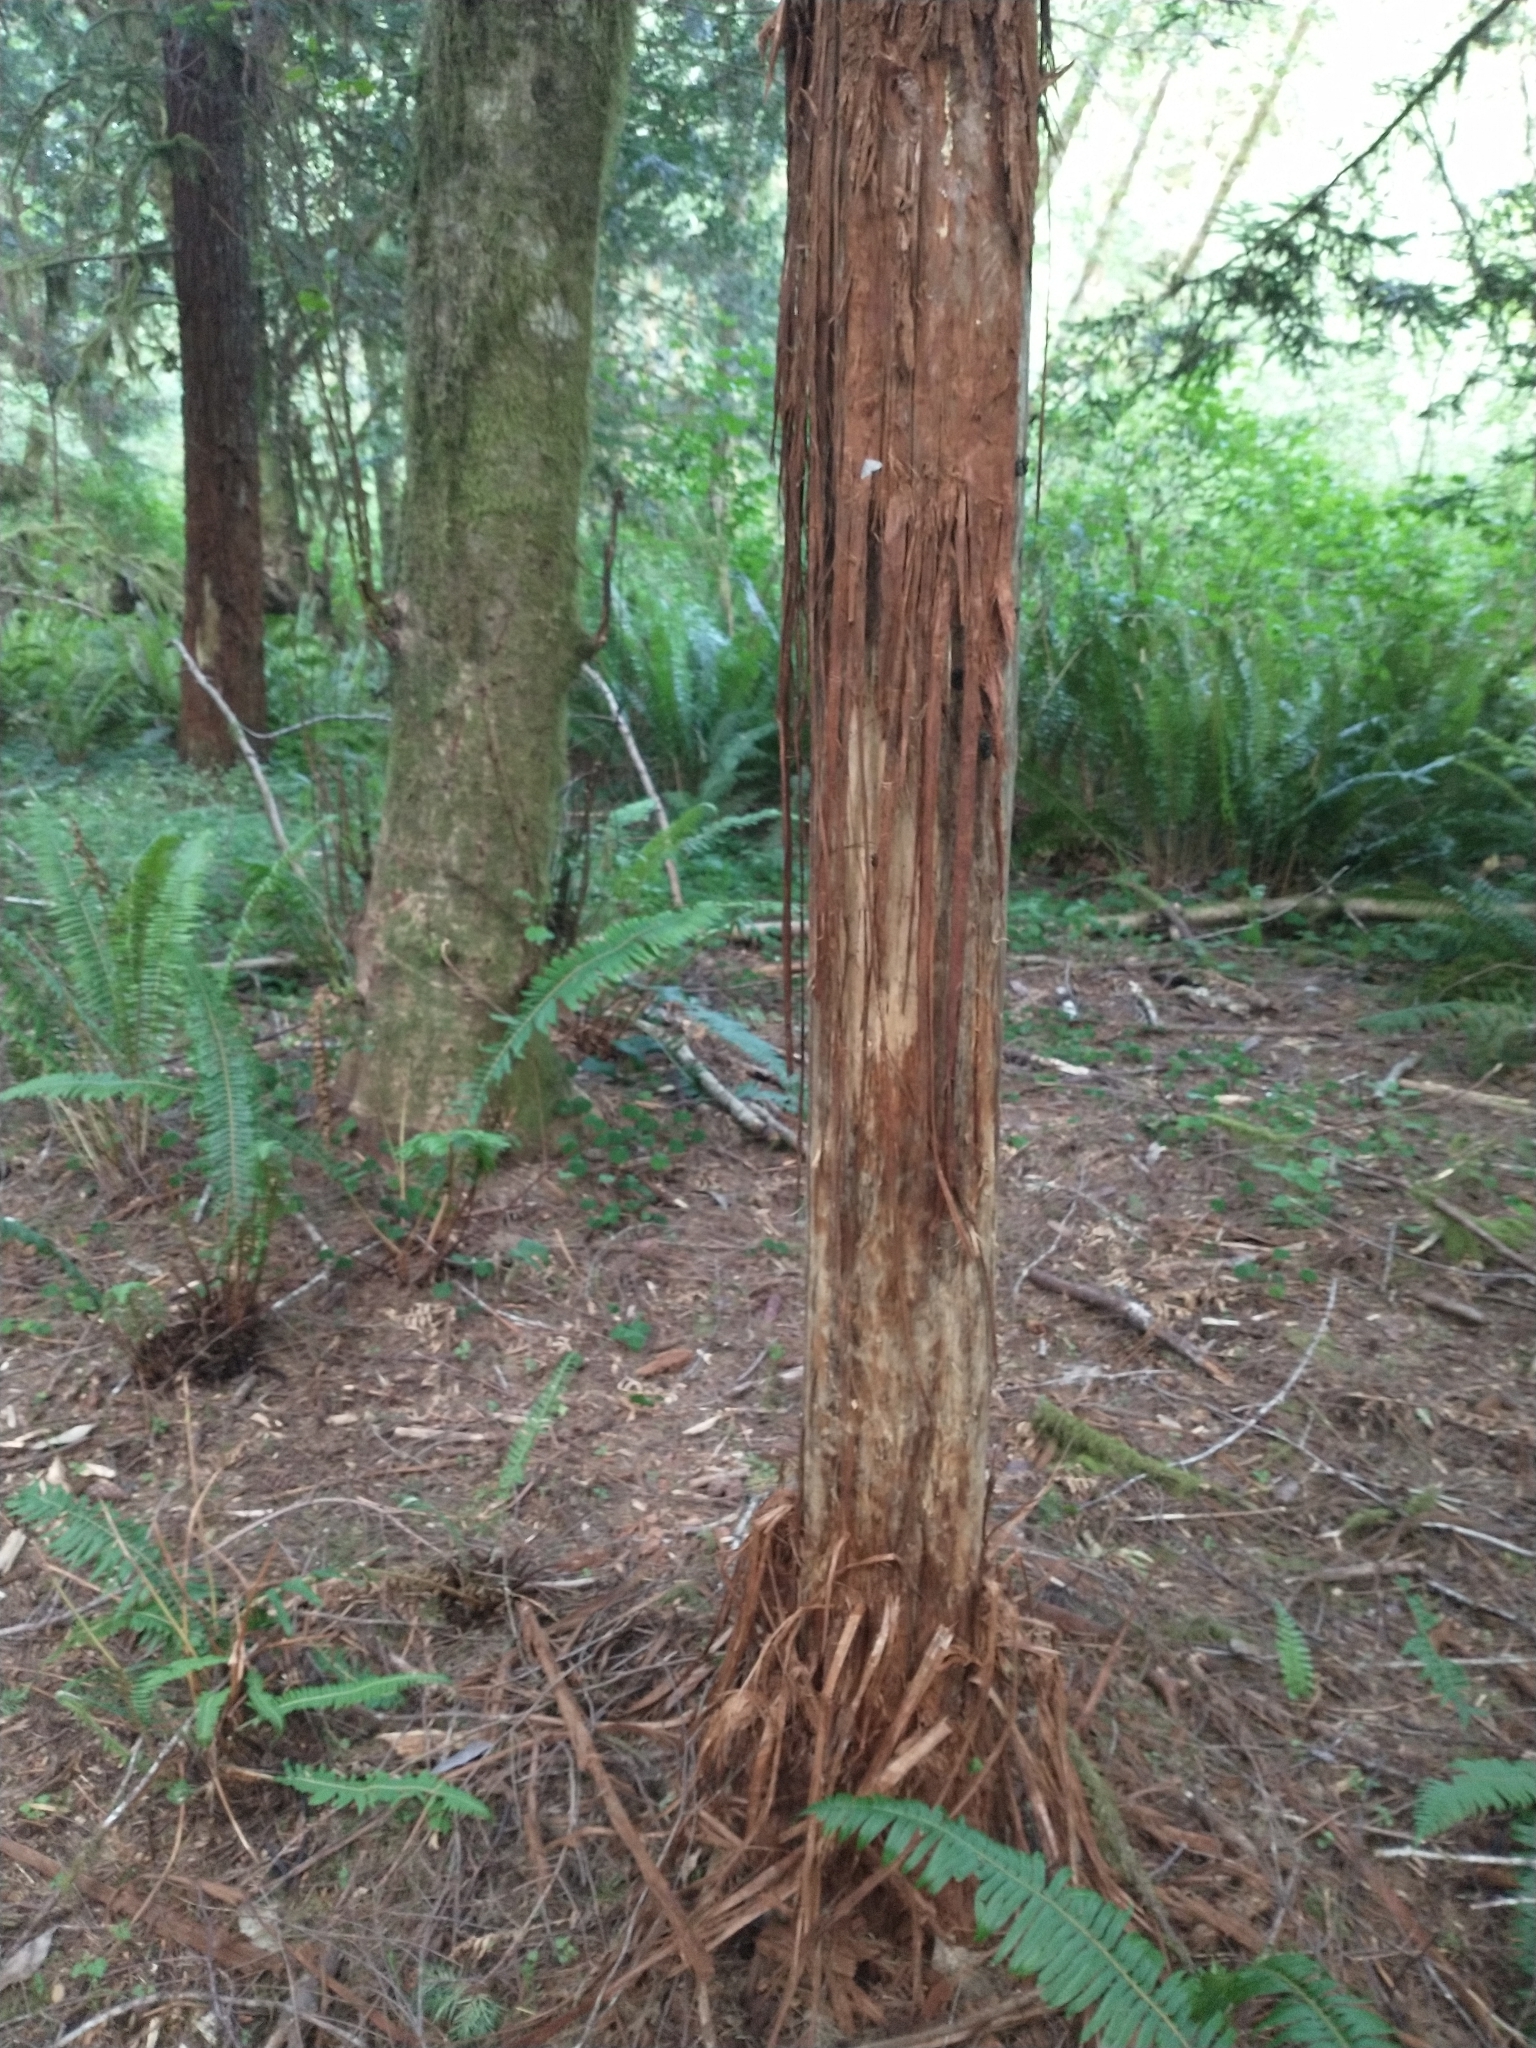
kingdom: Plantae
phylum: Tracheophyta
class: Pinopsida
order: Pinales
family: Cupressaceae
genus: Sequoia
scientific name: Sequoia sempervirens
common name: Coast redwood
